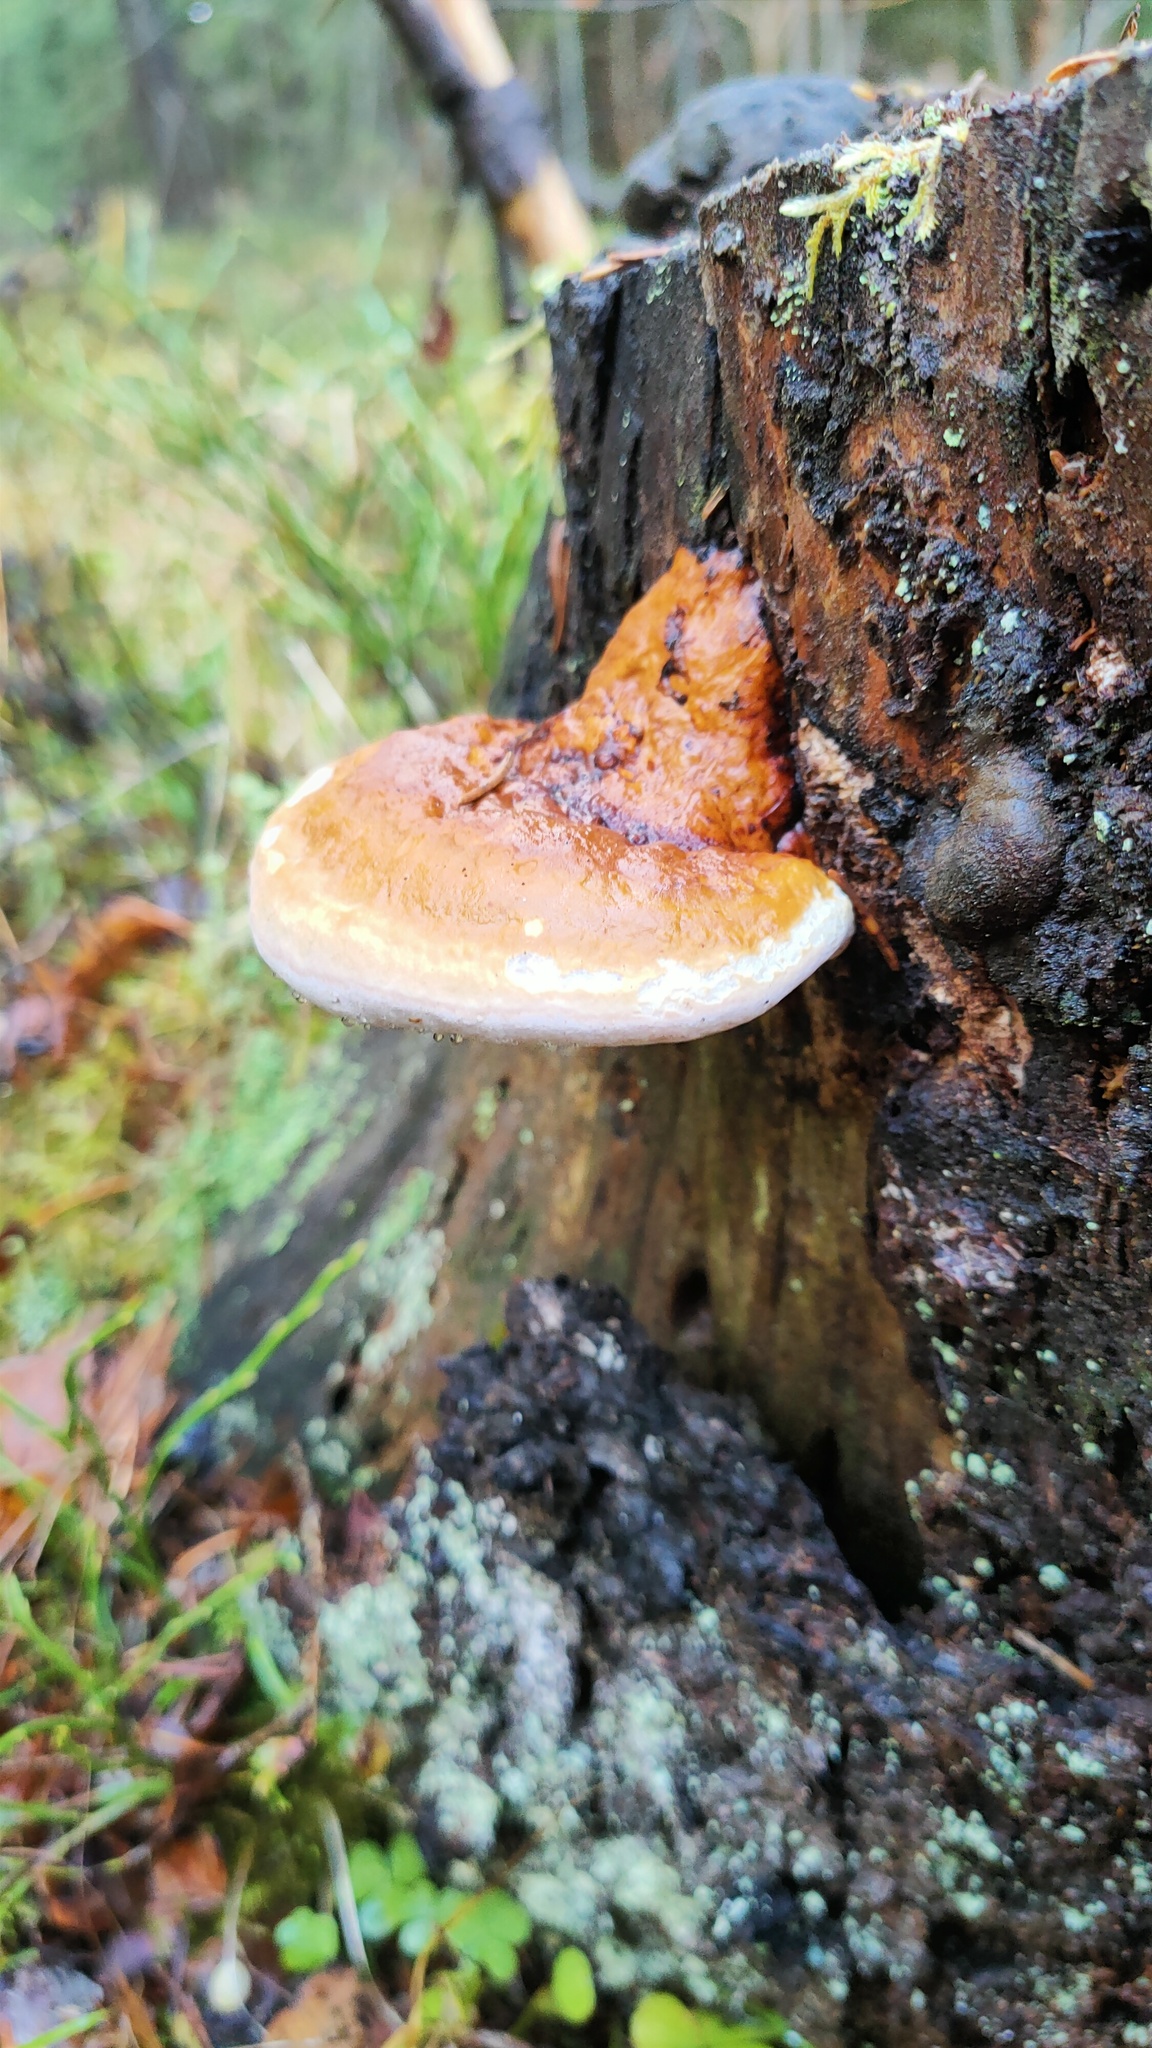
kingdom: Fungi
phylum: Basidiomycota
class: Agaricomycetes
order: Polyporales
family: Fomitopsidaceae
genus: Fomitopsis
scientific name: Fomitopsis pinicola
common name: Red-belted bracket
